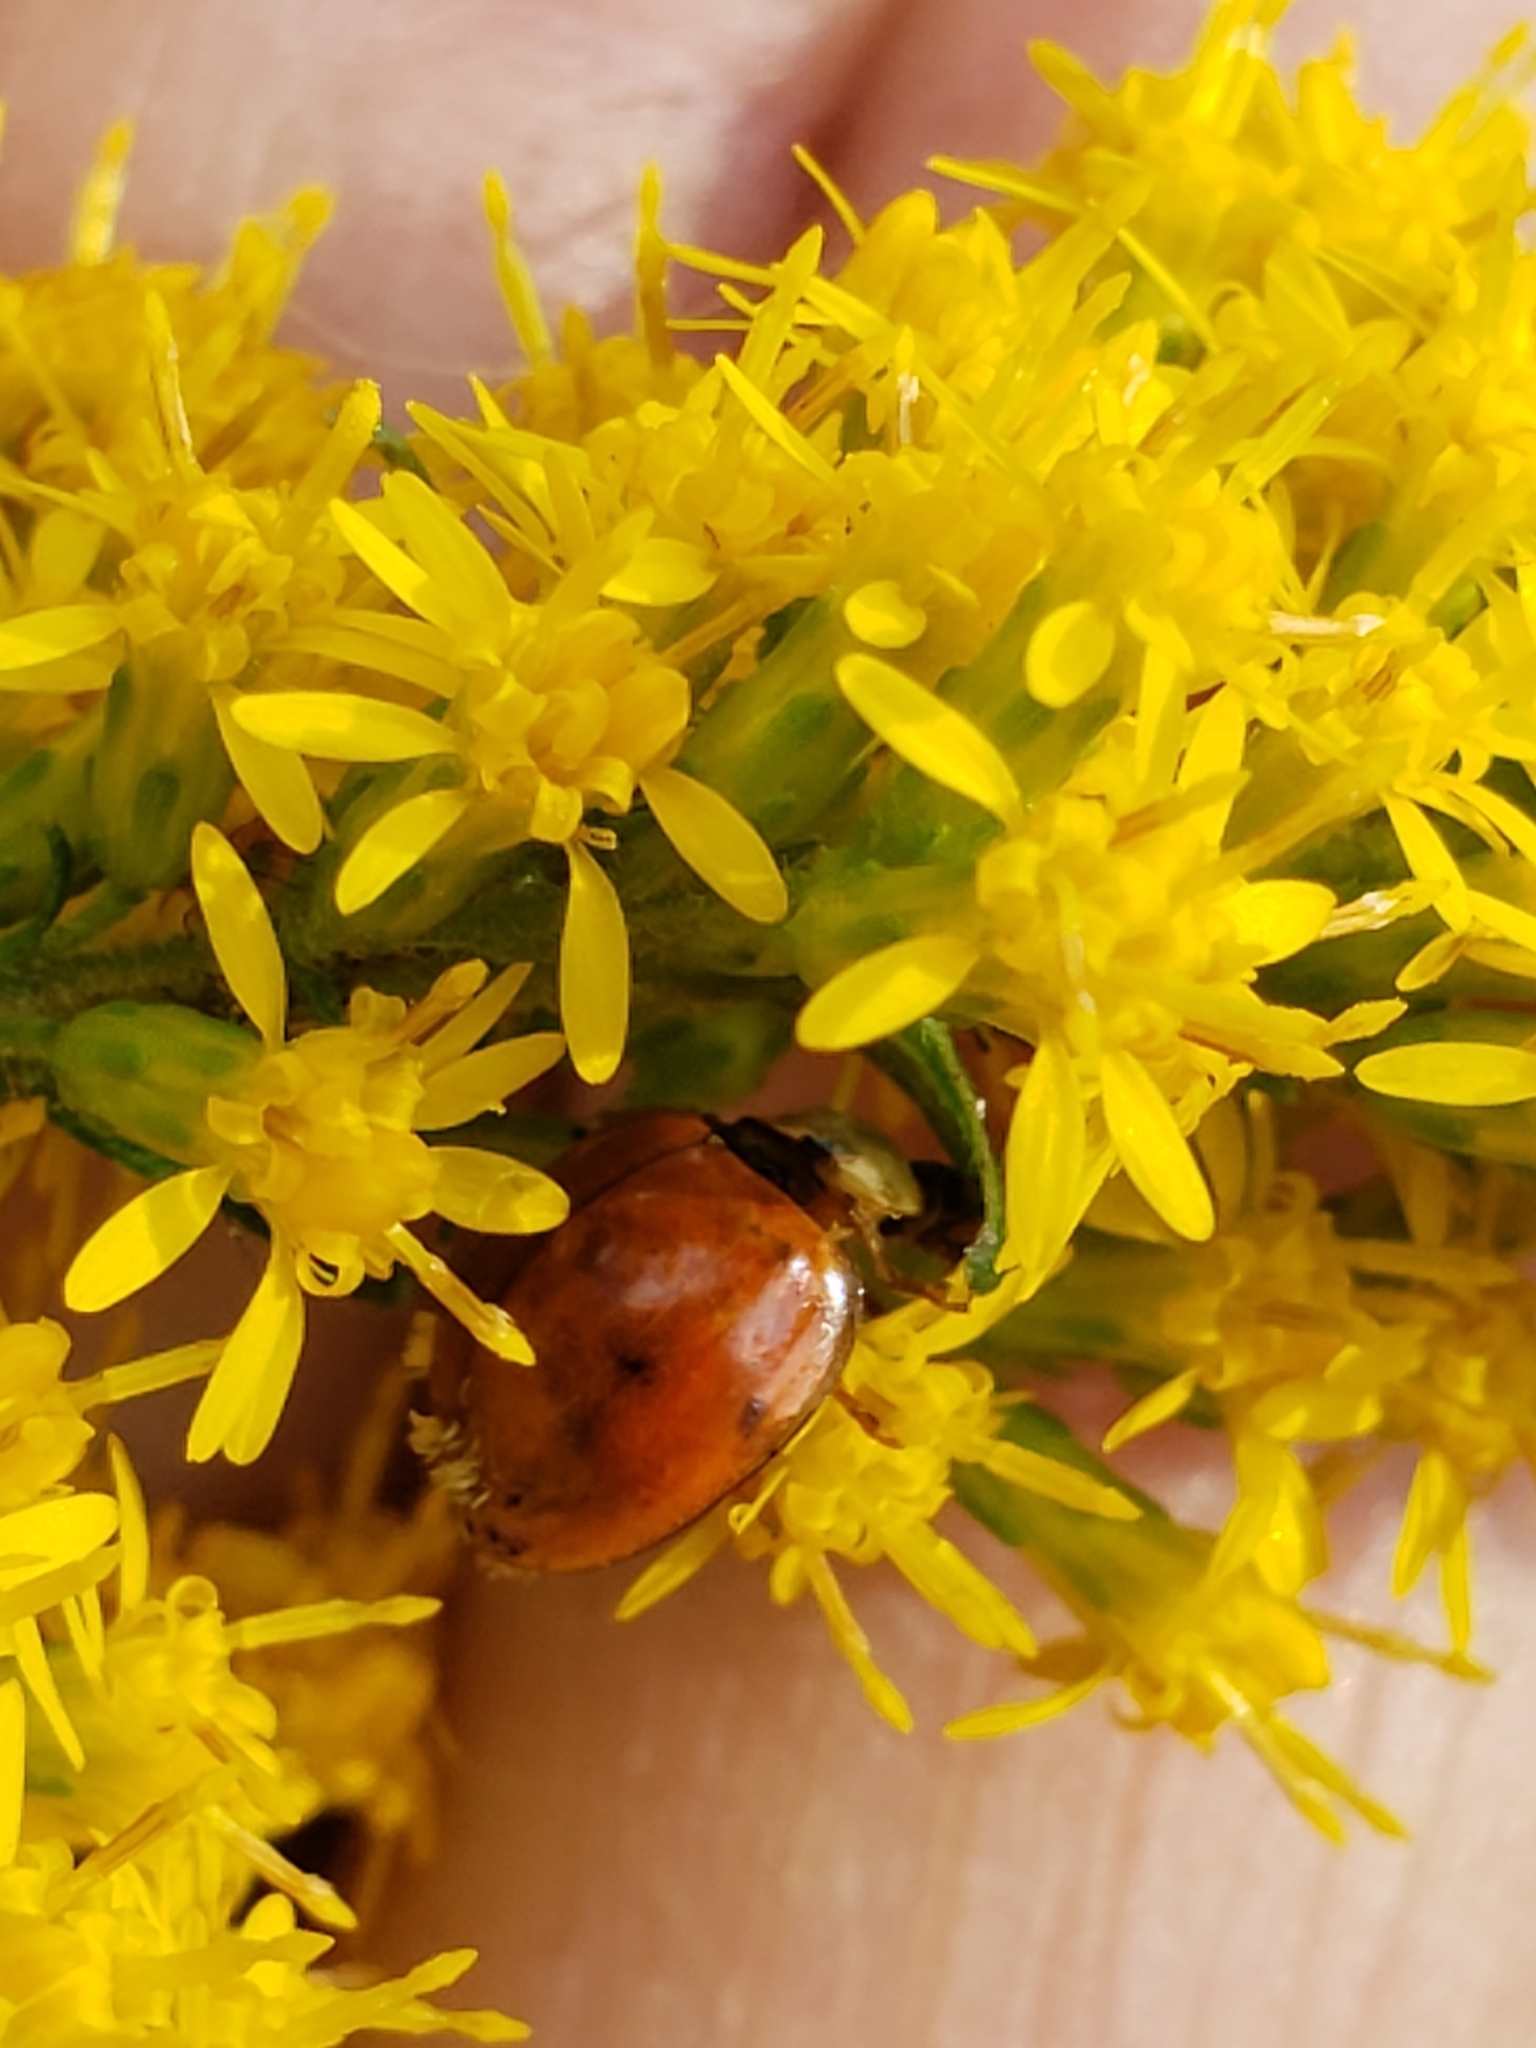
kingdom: Animalia
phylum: Arthropoda
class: Insecta
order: Coleoptera
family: Coccinellidae
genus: Harmonia
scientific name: Harmonia axyridis
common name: Harlequin ladybird
